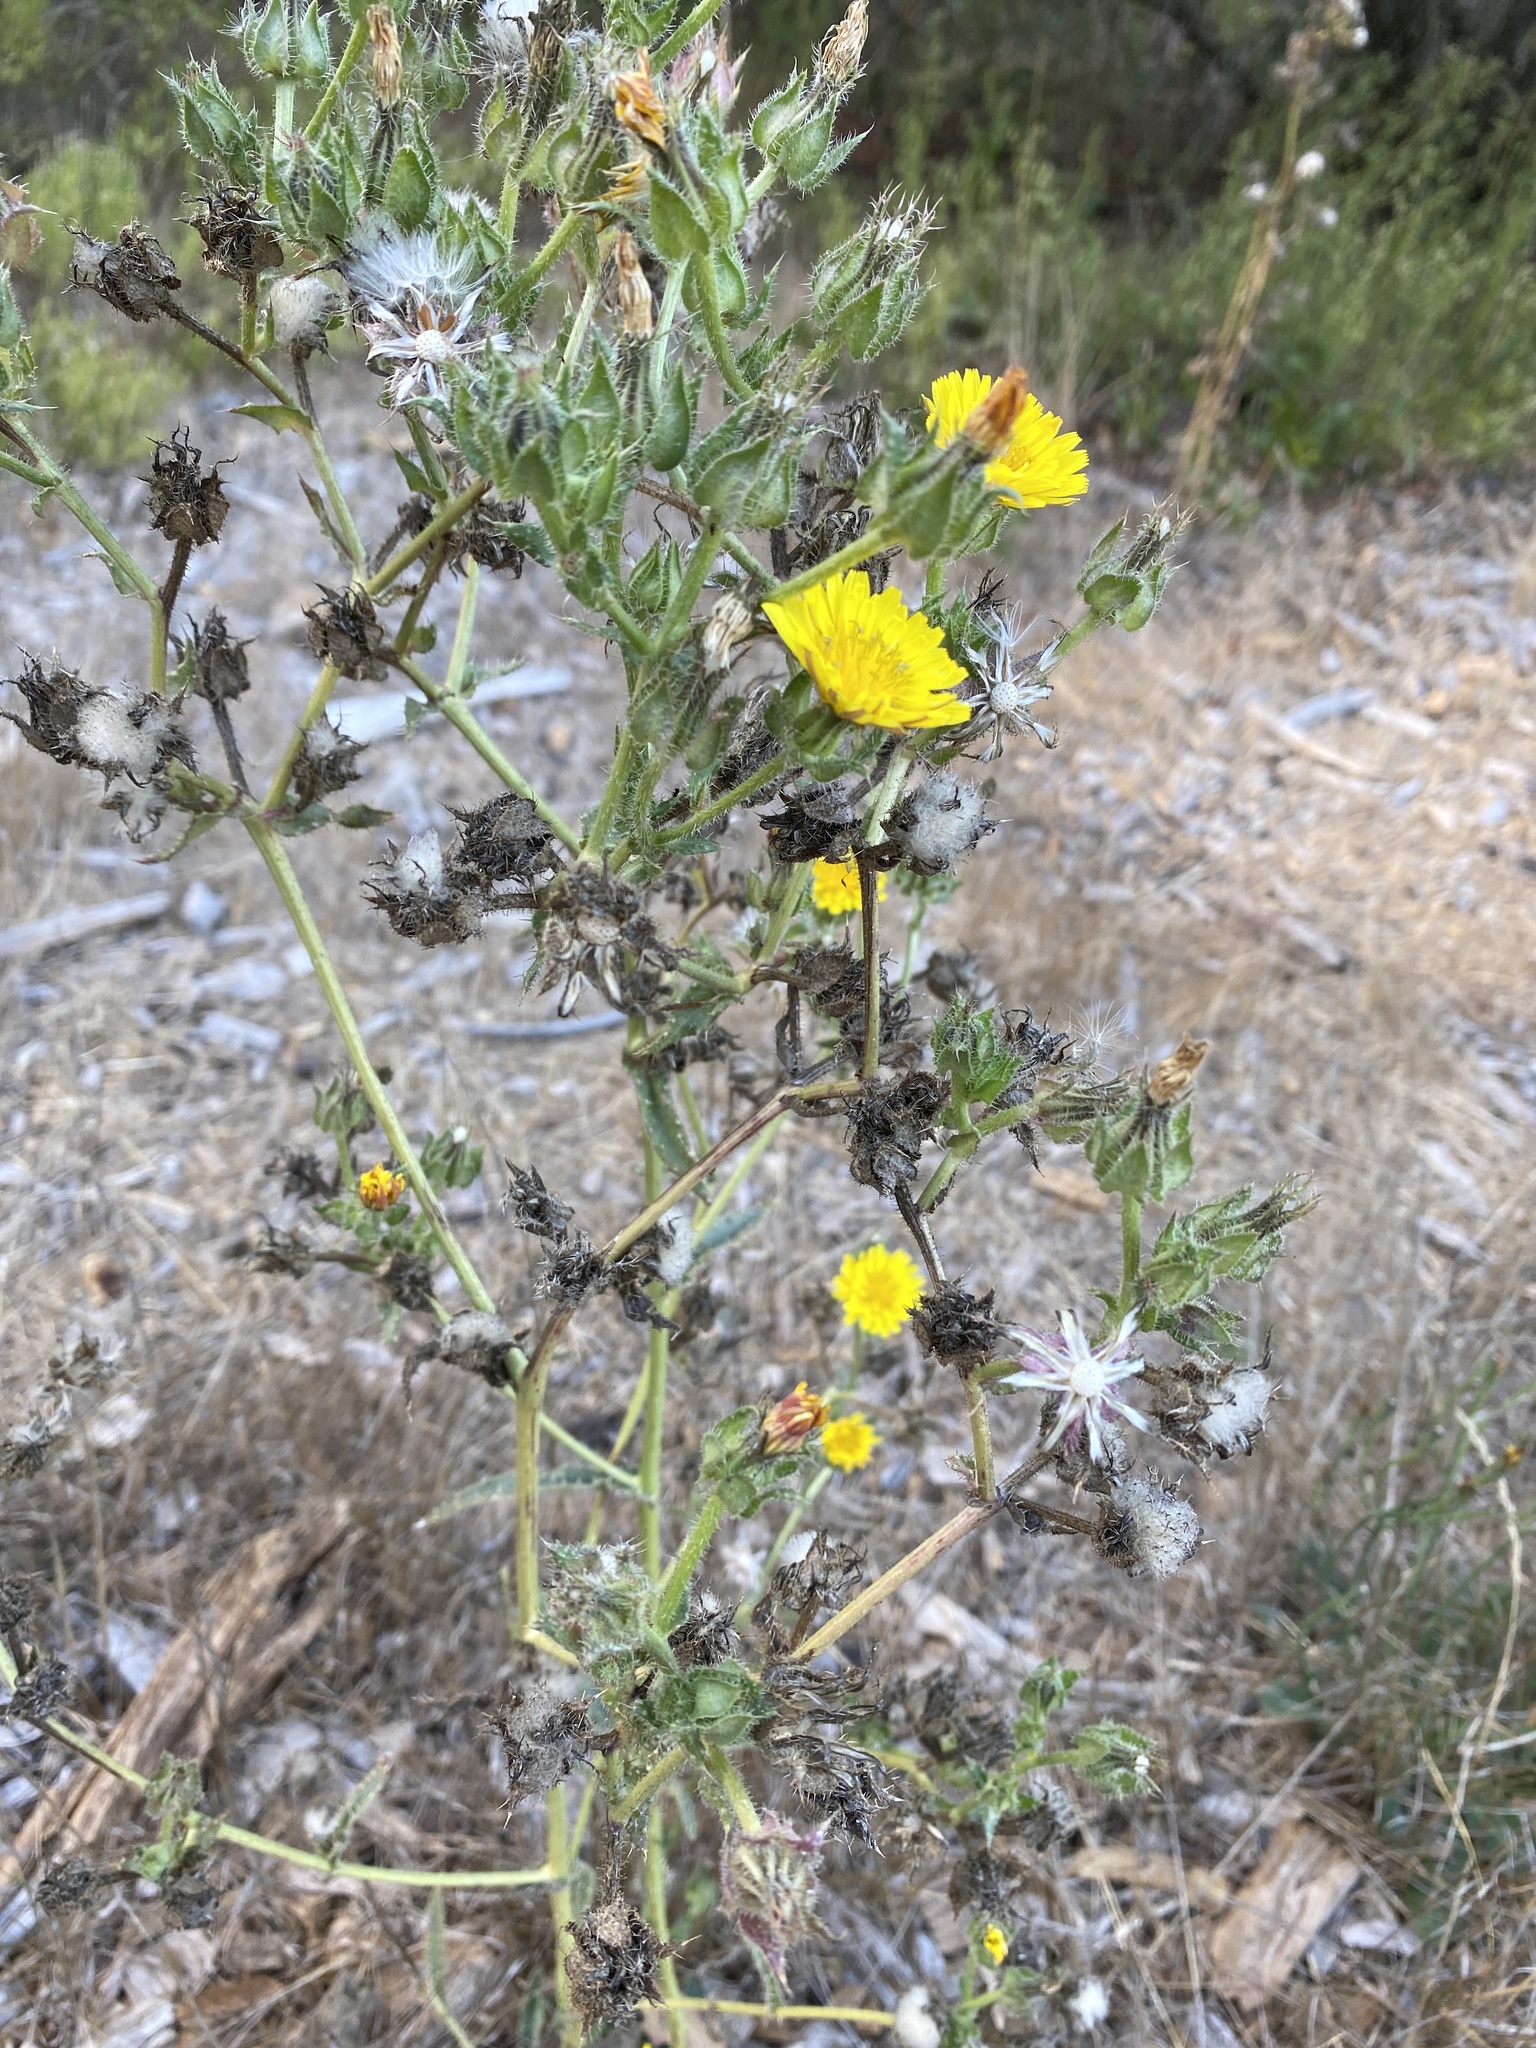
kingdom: Plantae
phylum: Tracheophyta
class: Magnoliopsida
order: Asterales
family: Asteraceae
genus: Helminthotheca
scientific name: Helminthotheca echioides
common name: Ox-tongue
